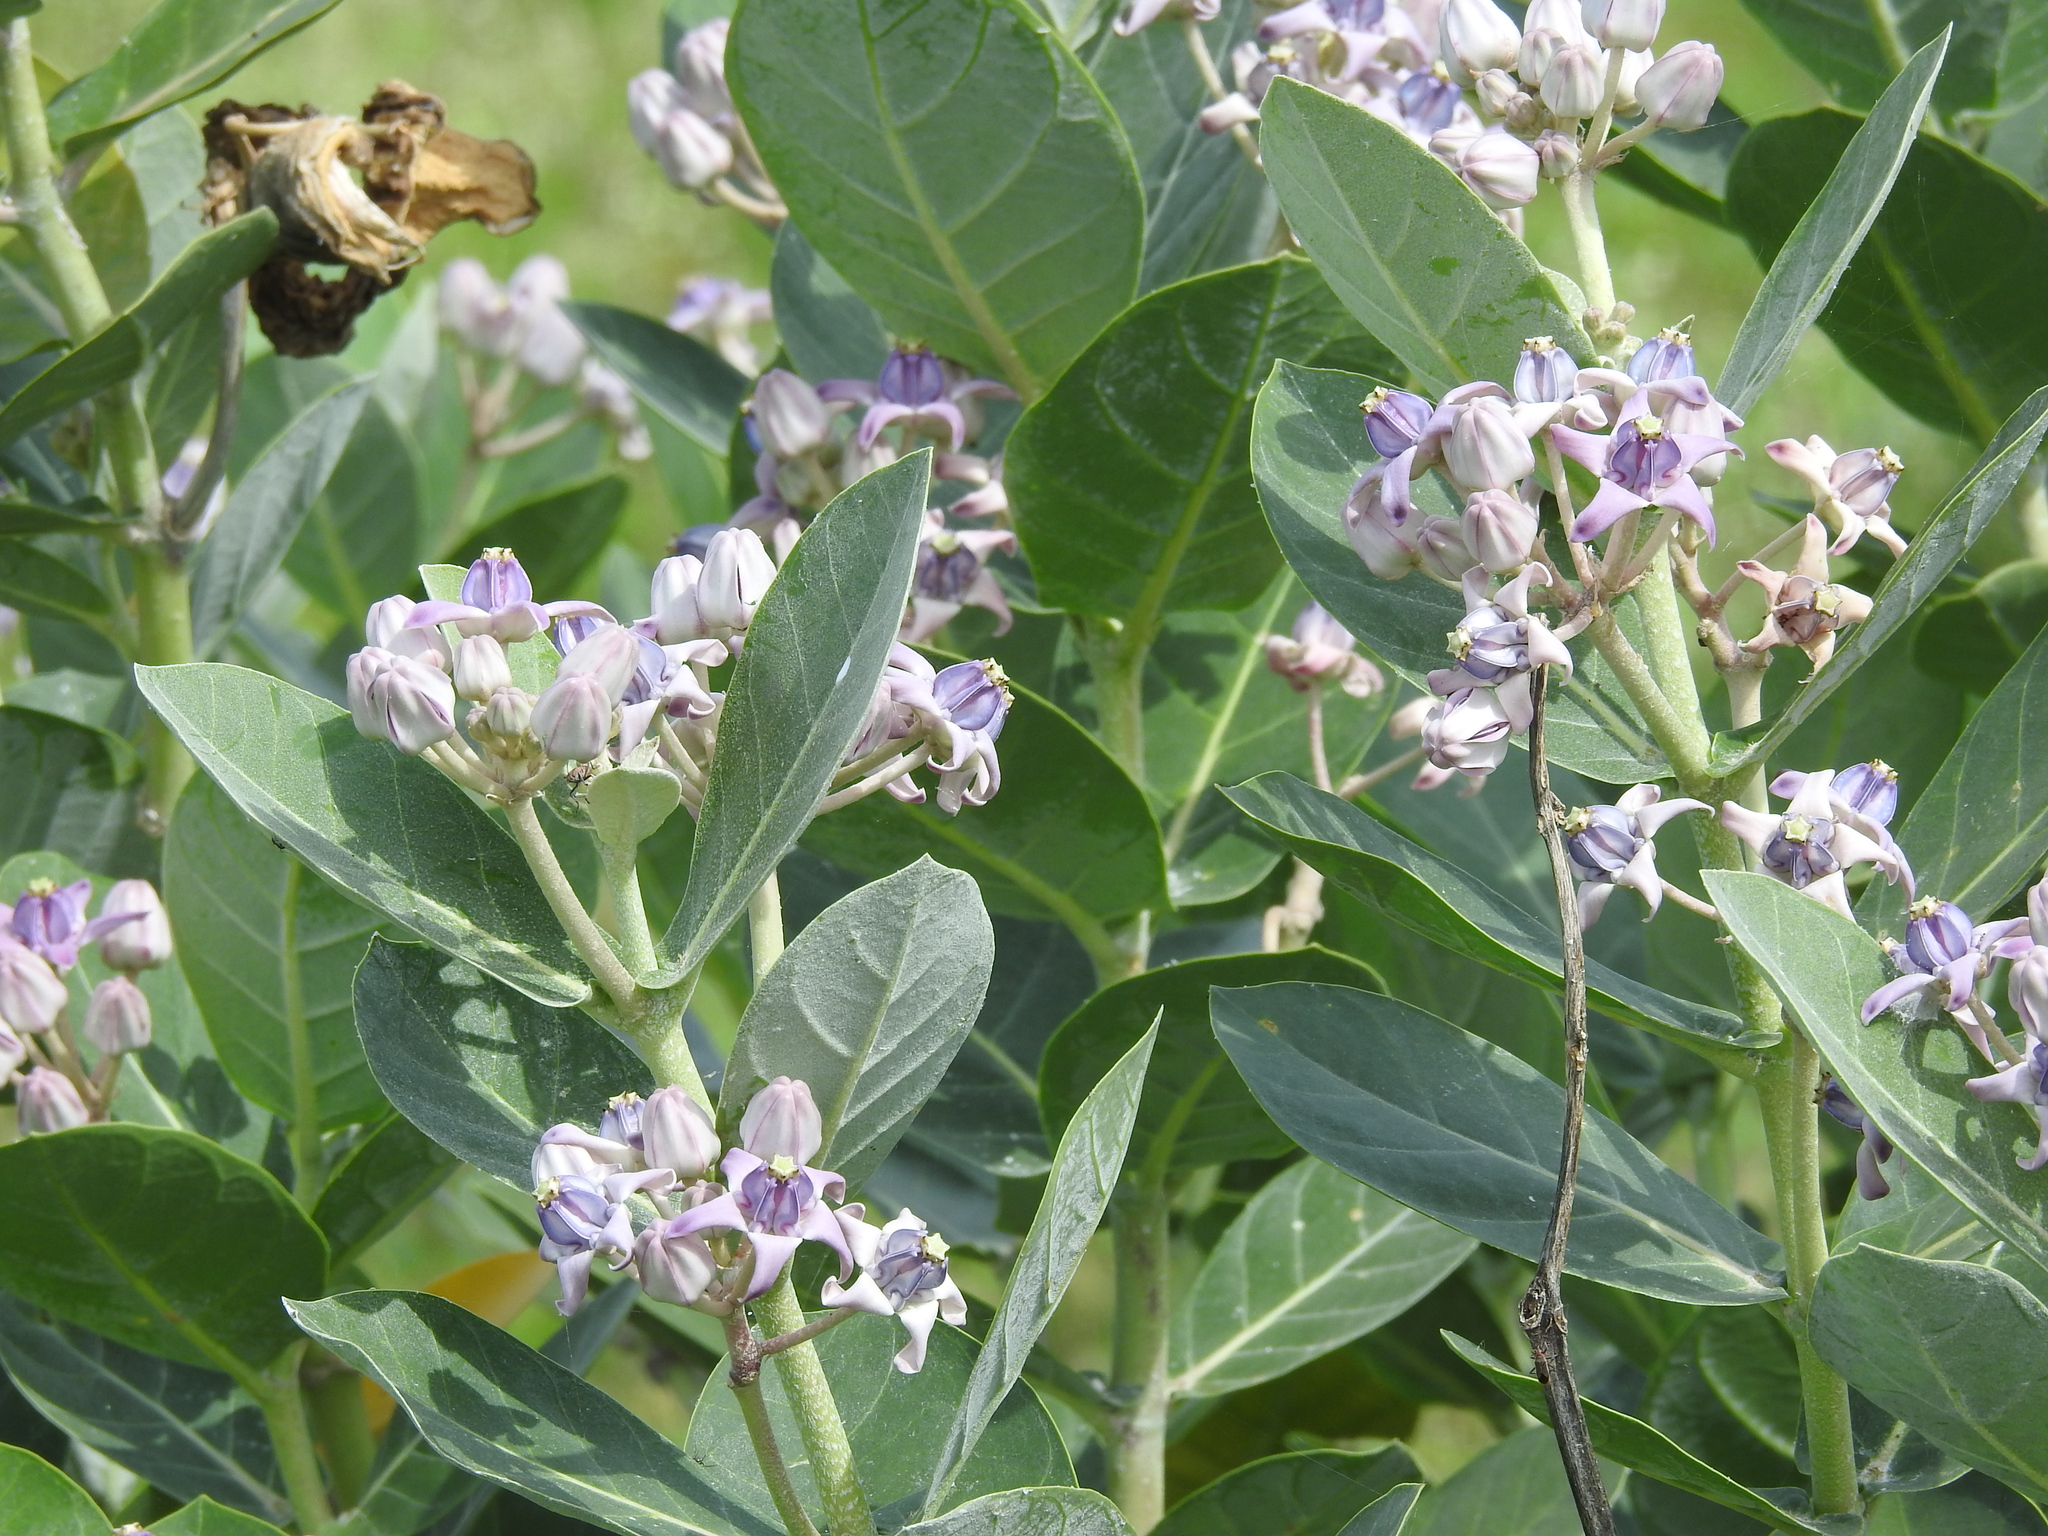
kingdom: Plantae
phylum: Tracheophyta
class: Magnoliopsida
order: Gentianales
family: Apocynaceae
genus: Calotropis
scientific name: Calotropis gigantea
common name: Crown flower
